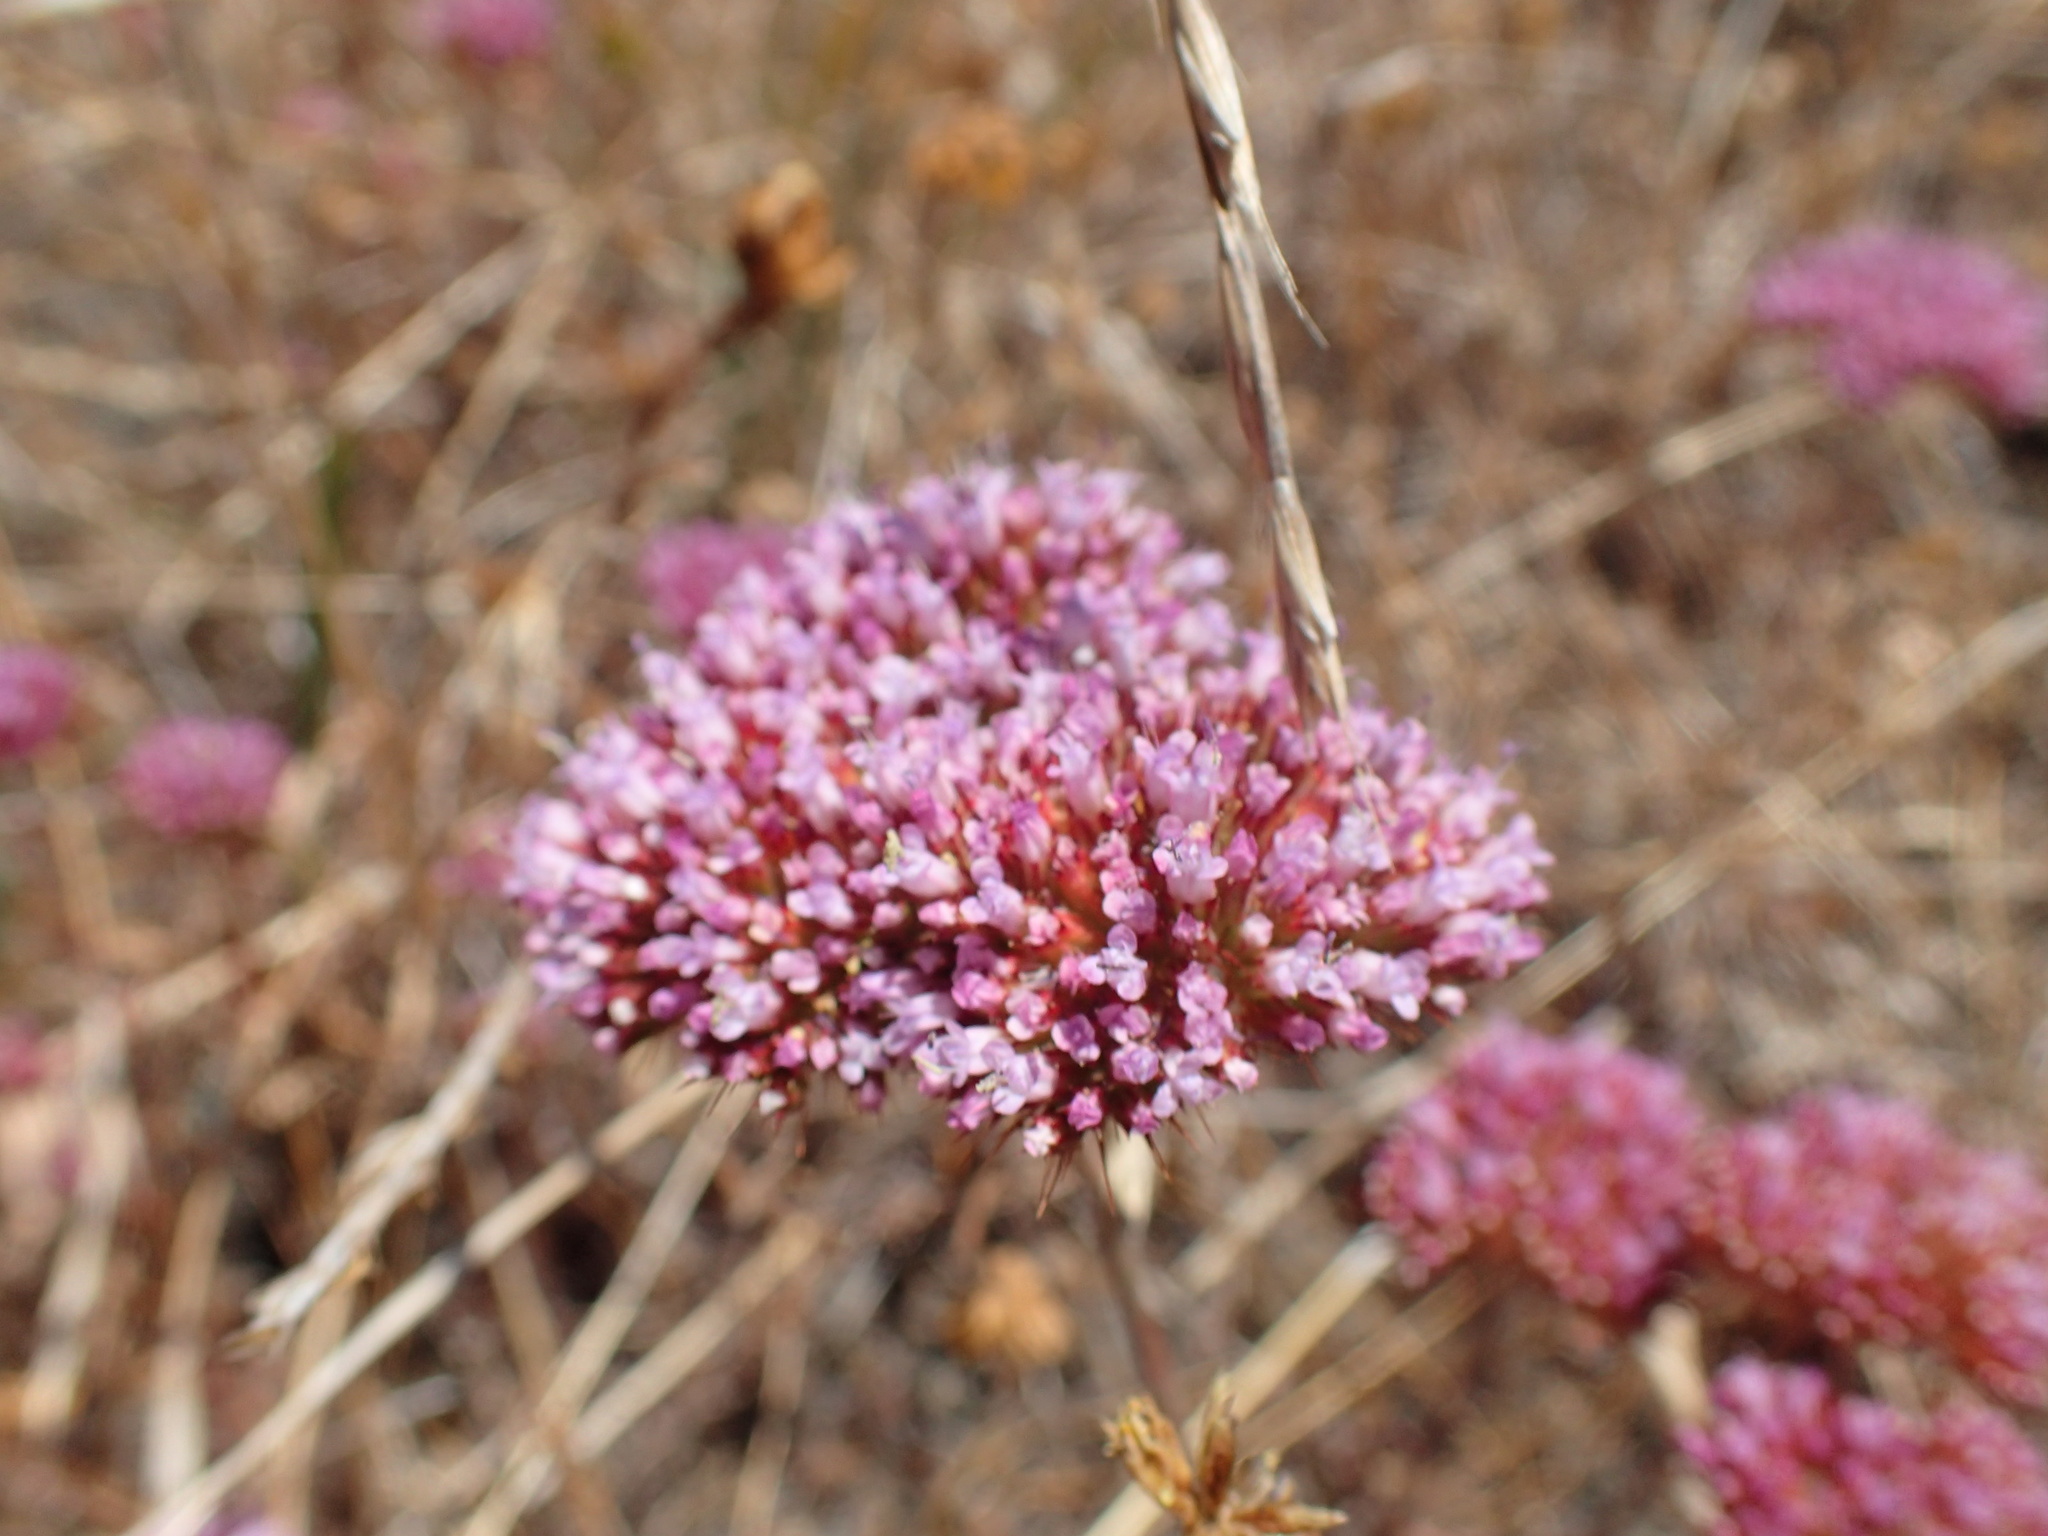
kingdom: Plantae
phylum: Tracheophyta
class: Magnoliopsida
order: Caryophyllales
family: Polygonaceae
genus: Chorizanthe
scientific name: Chorizanthe palmeri
